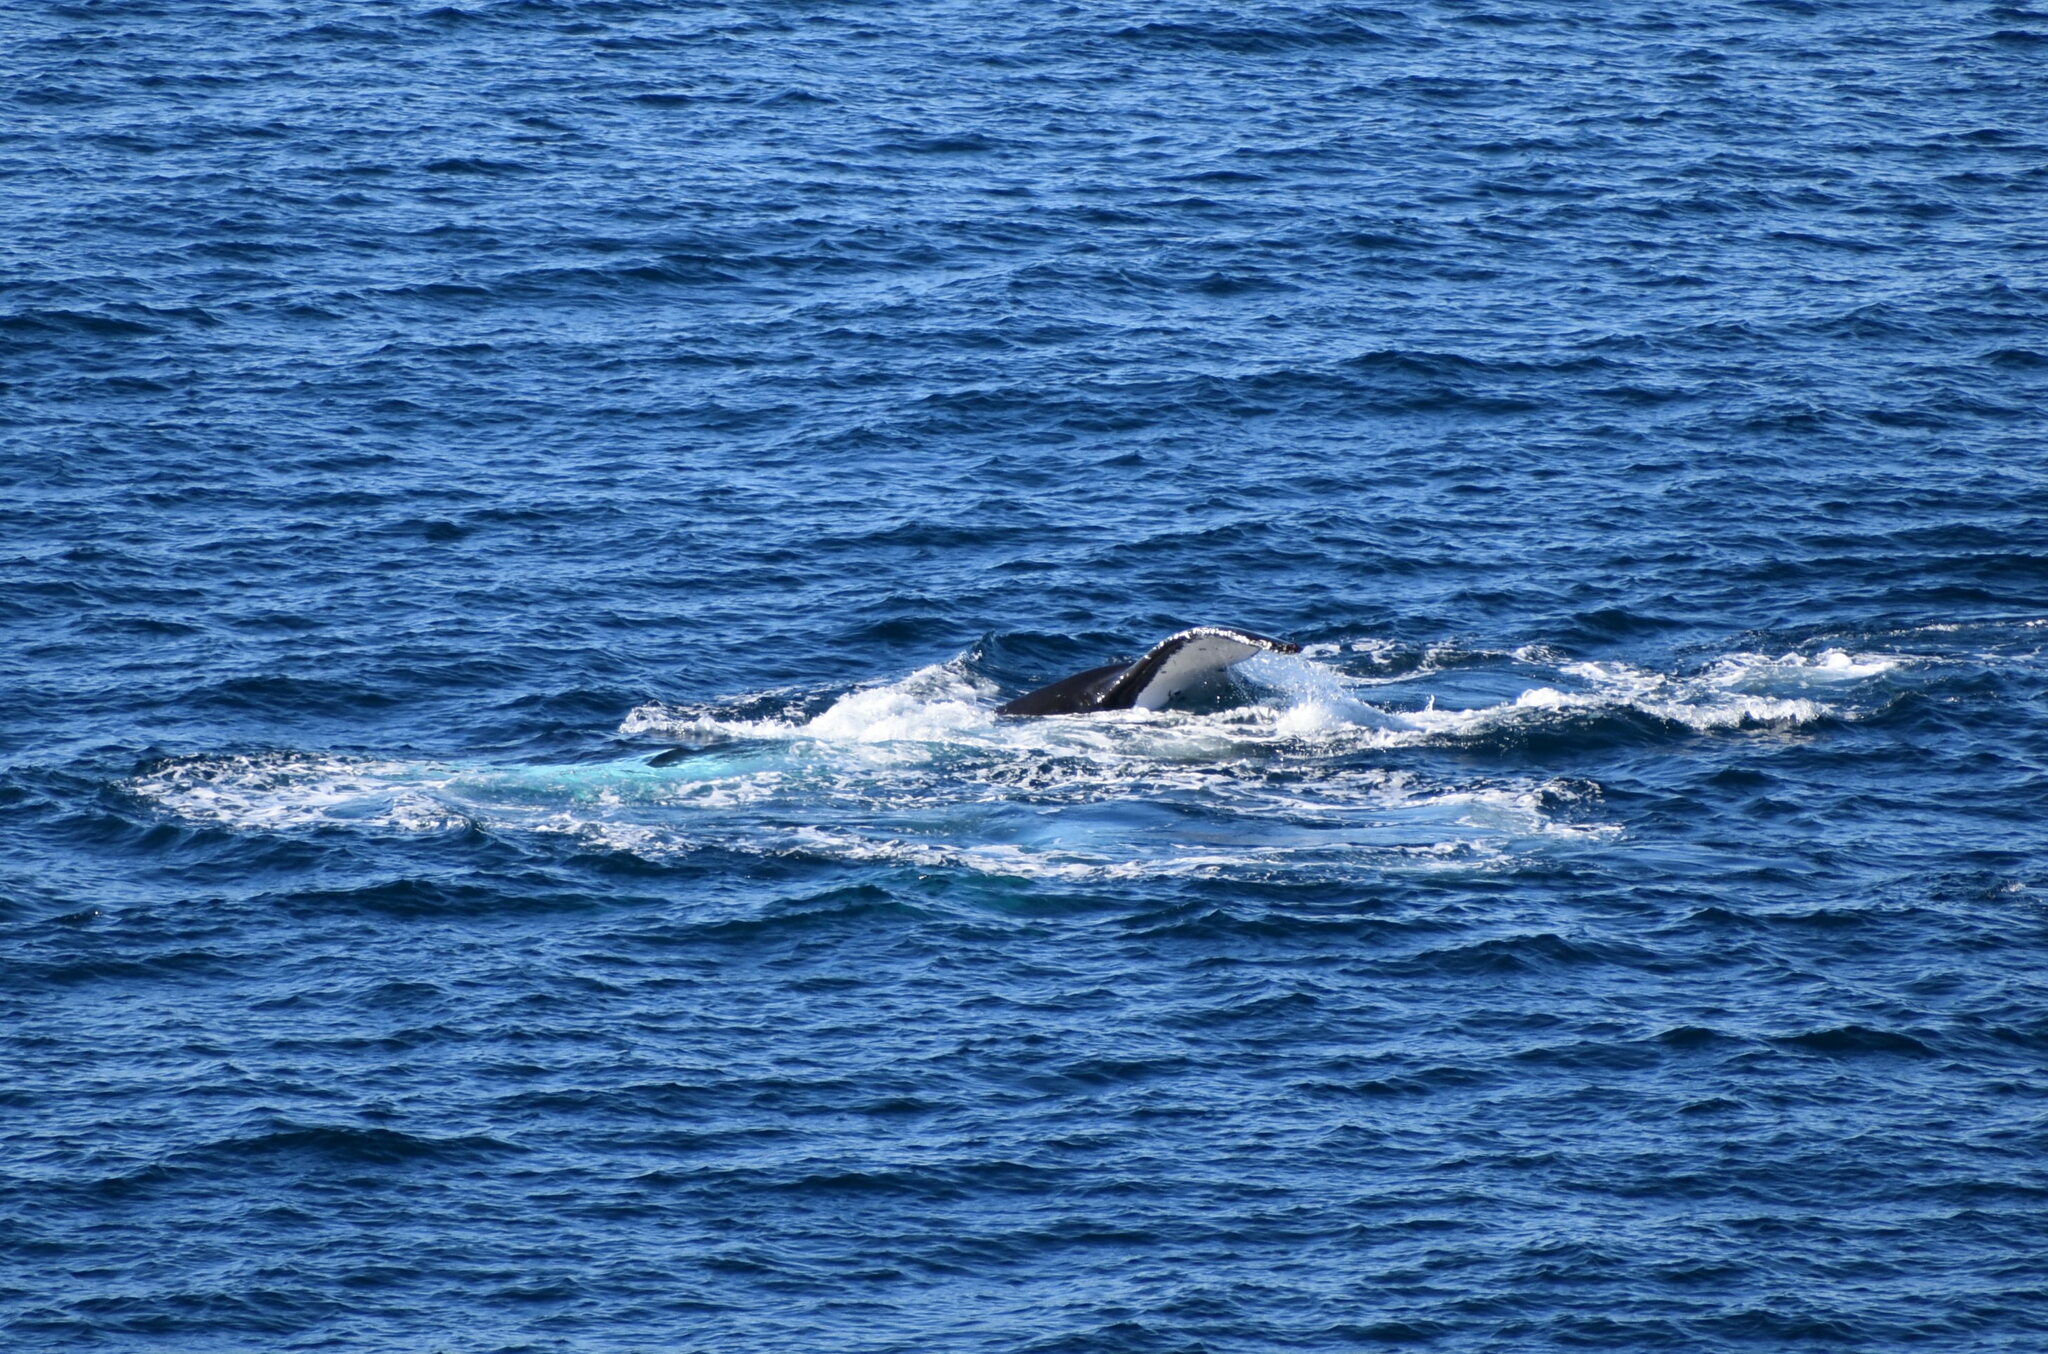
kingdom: Animalia
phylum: Chordata
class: Mammalia
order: Cetacea
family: Balaenopteridae
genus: Megaptera
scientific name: Megaptera novaeangliae
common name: Humpback whale
